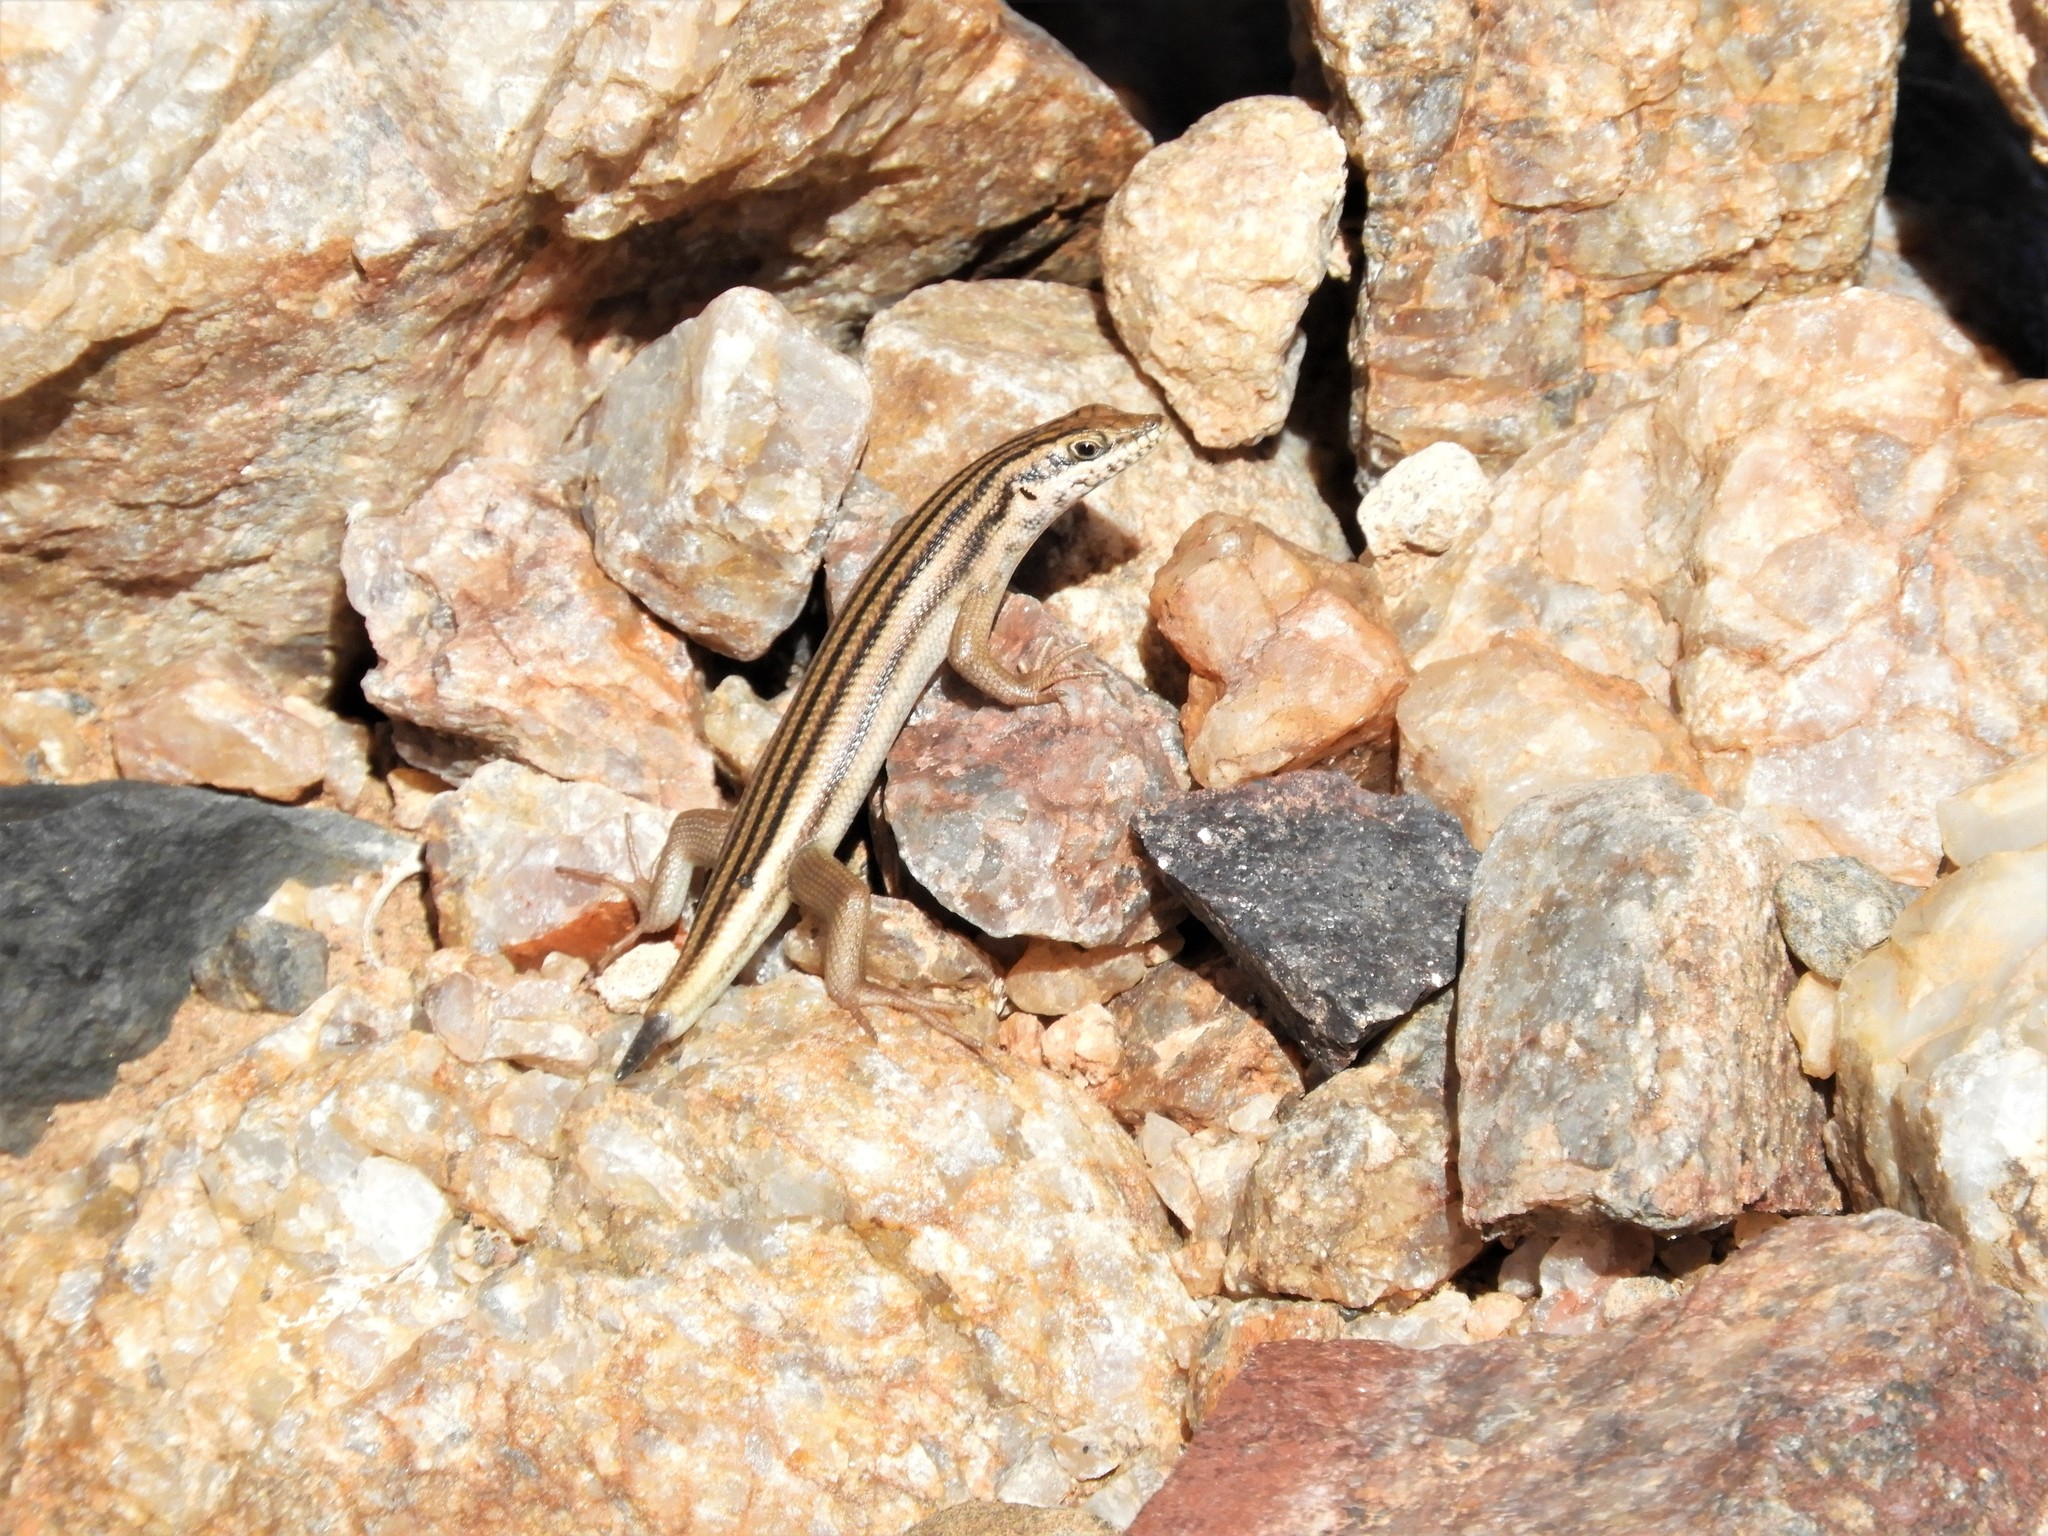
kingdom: Animalia
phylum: Chordata
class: Squamata
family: Scincidae
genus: Trachylepis
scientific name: Trachylepis sulcata
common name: Western rock skink
